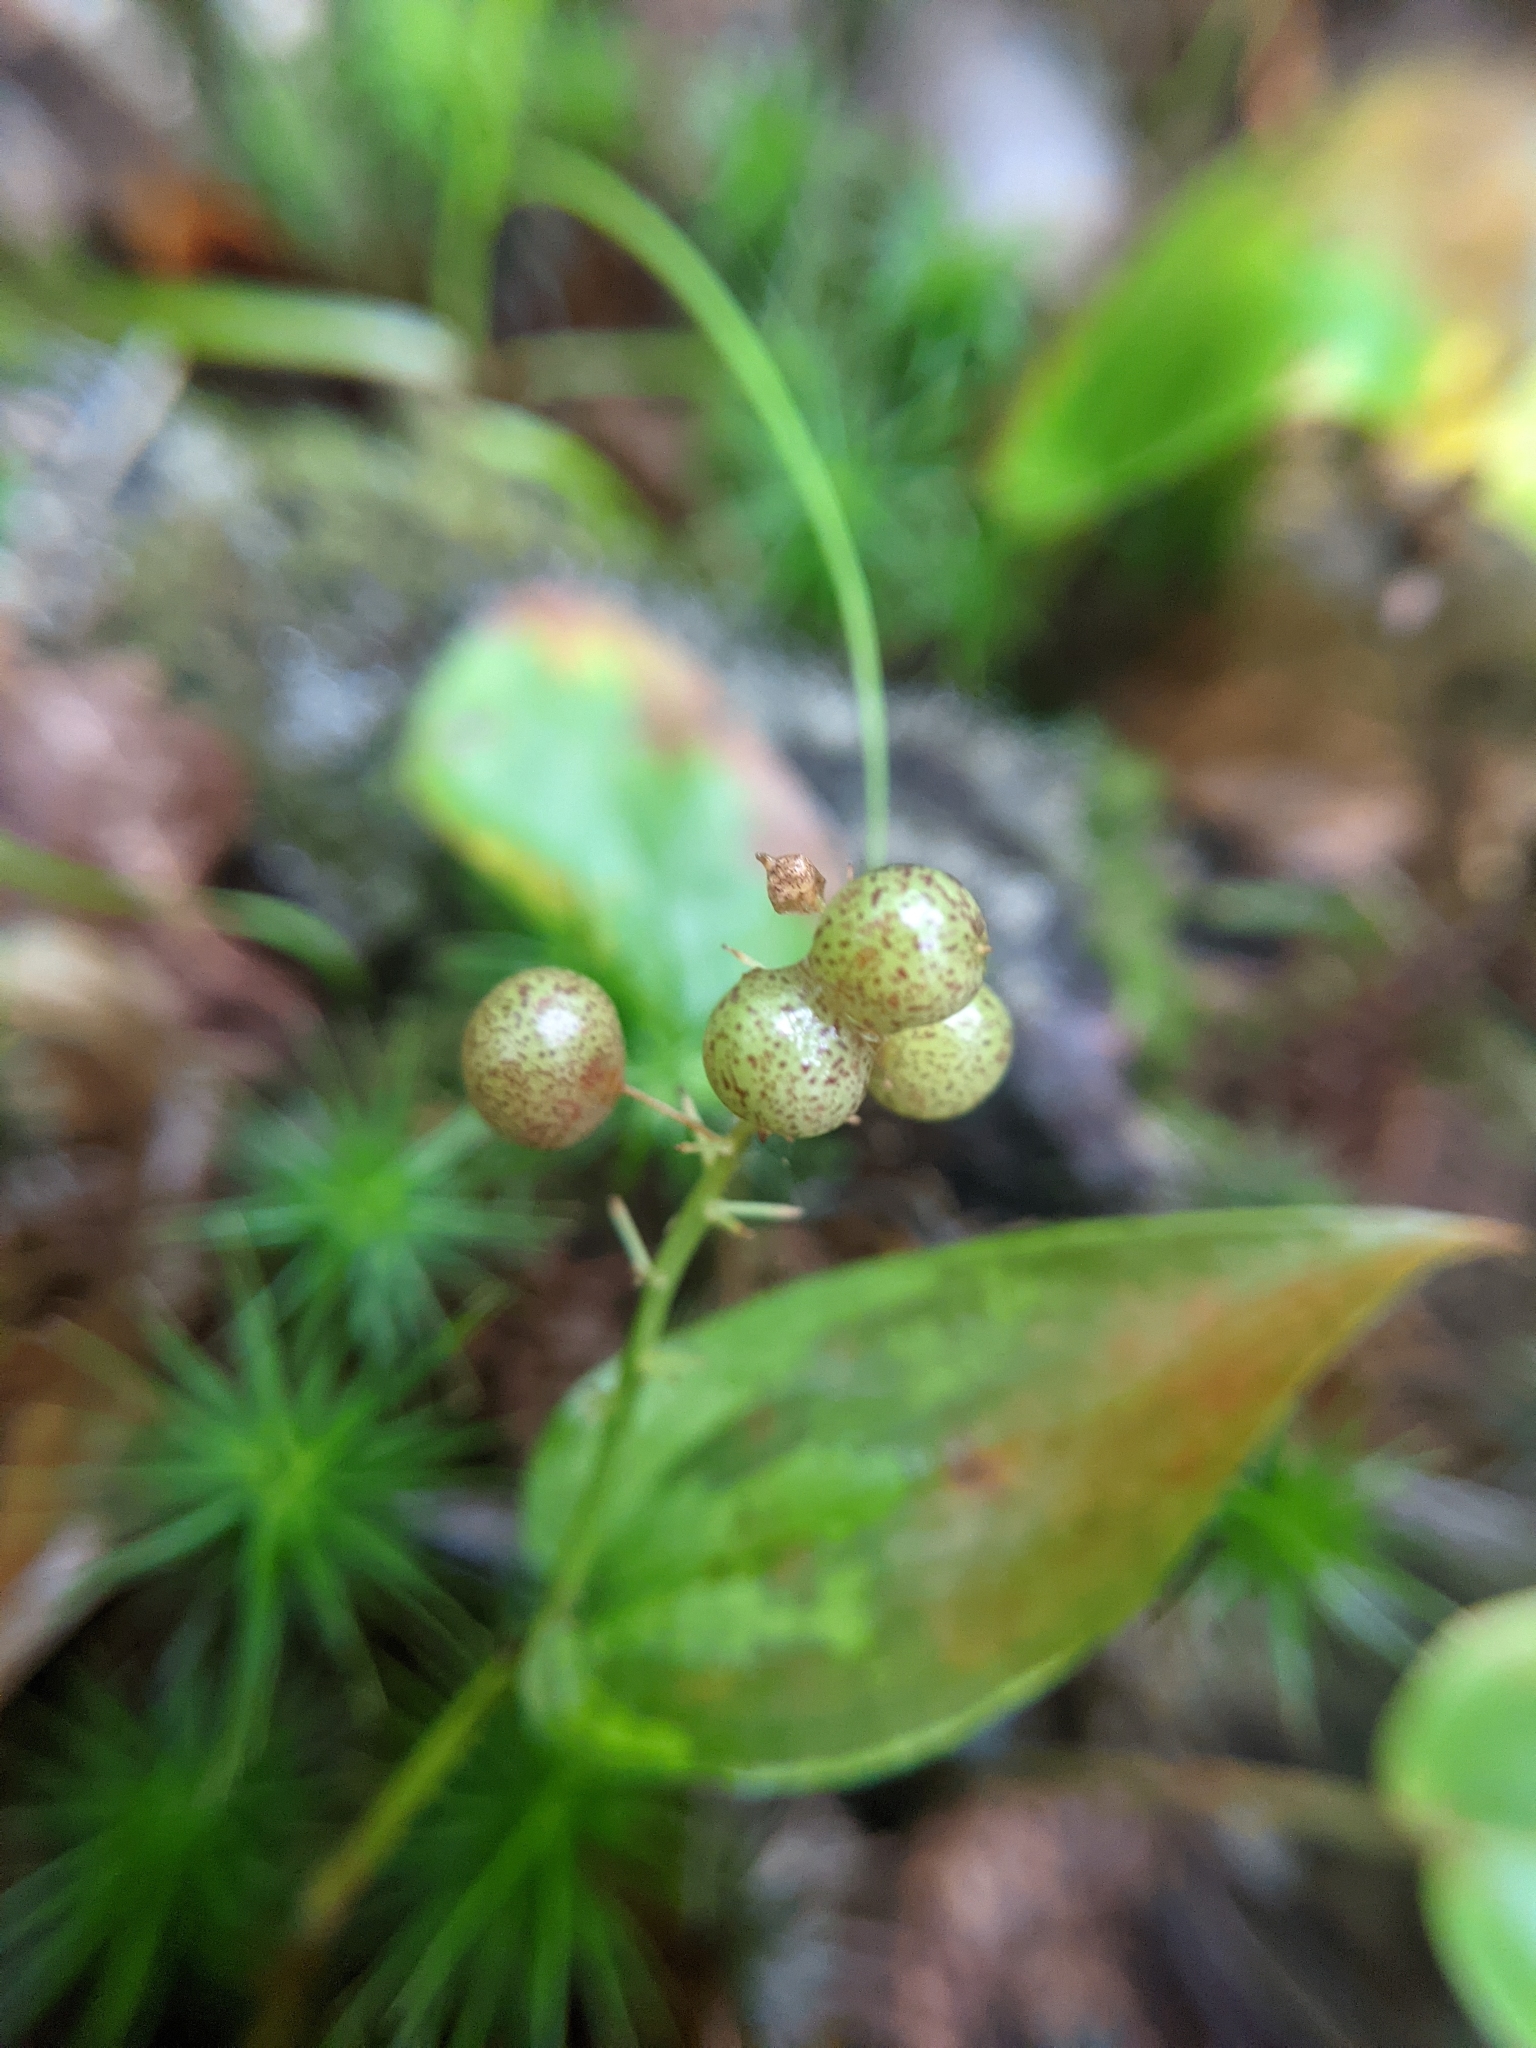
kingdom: Plantae
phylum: Tracheophyta
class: Liliopsida
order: Asparagales
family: Asparagaceae
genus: Maianthemum
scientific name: Maianthemum canadense
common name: False lily-of-the-valley
